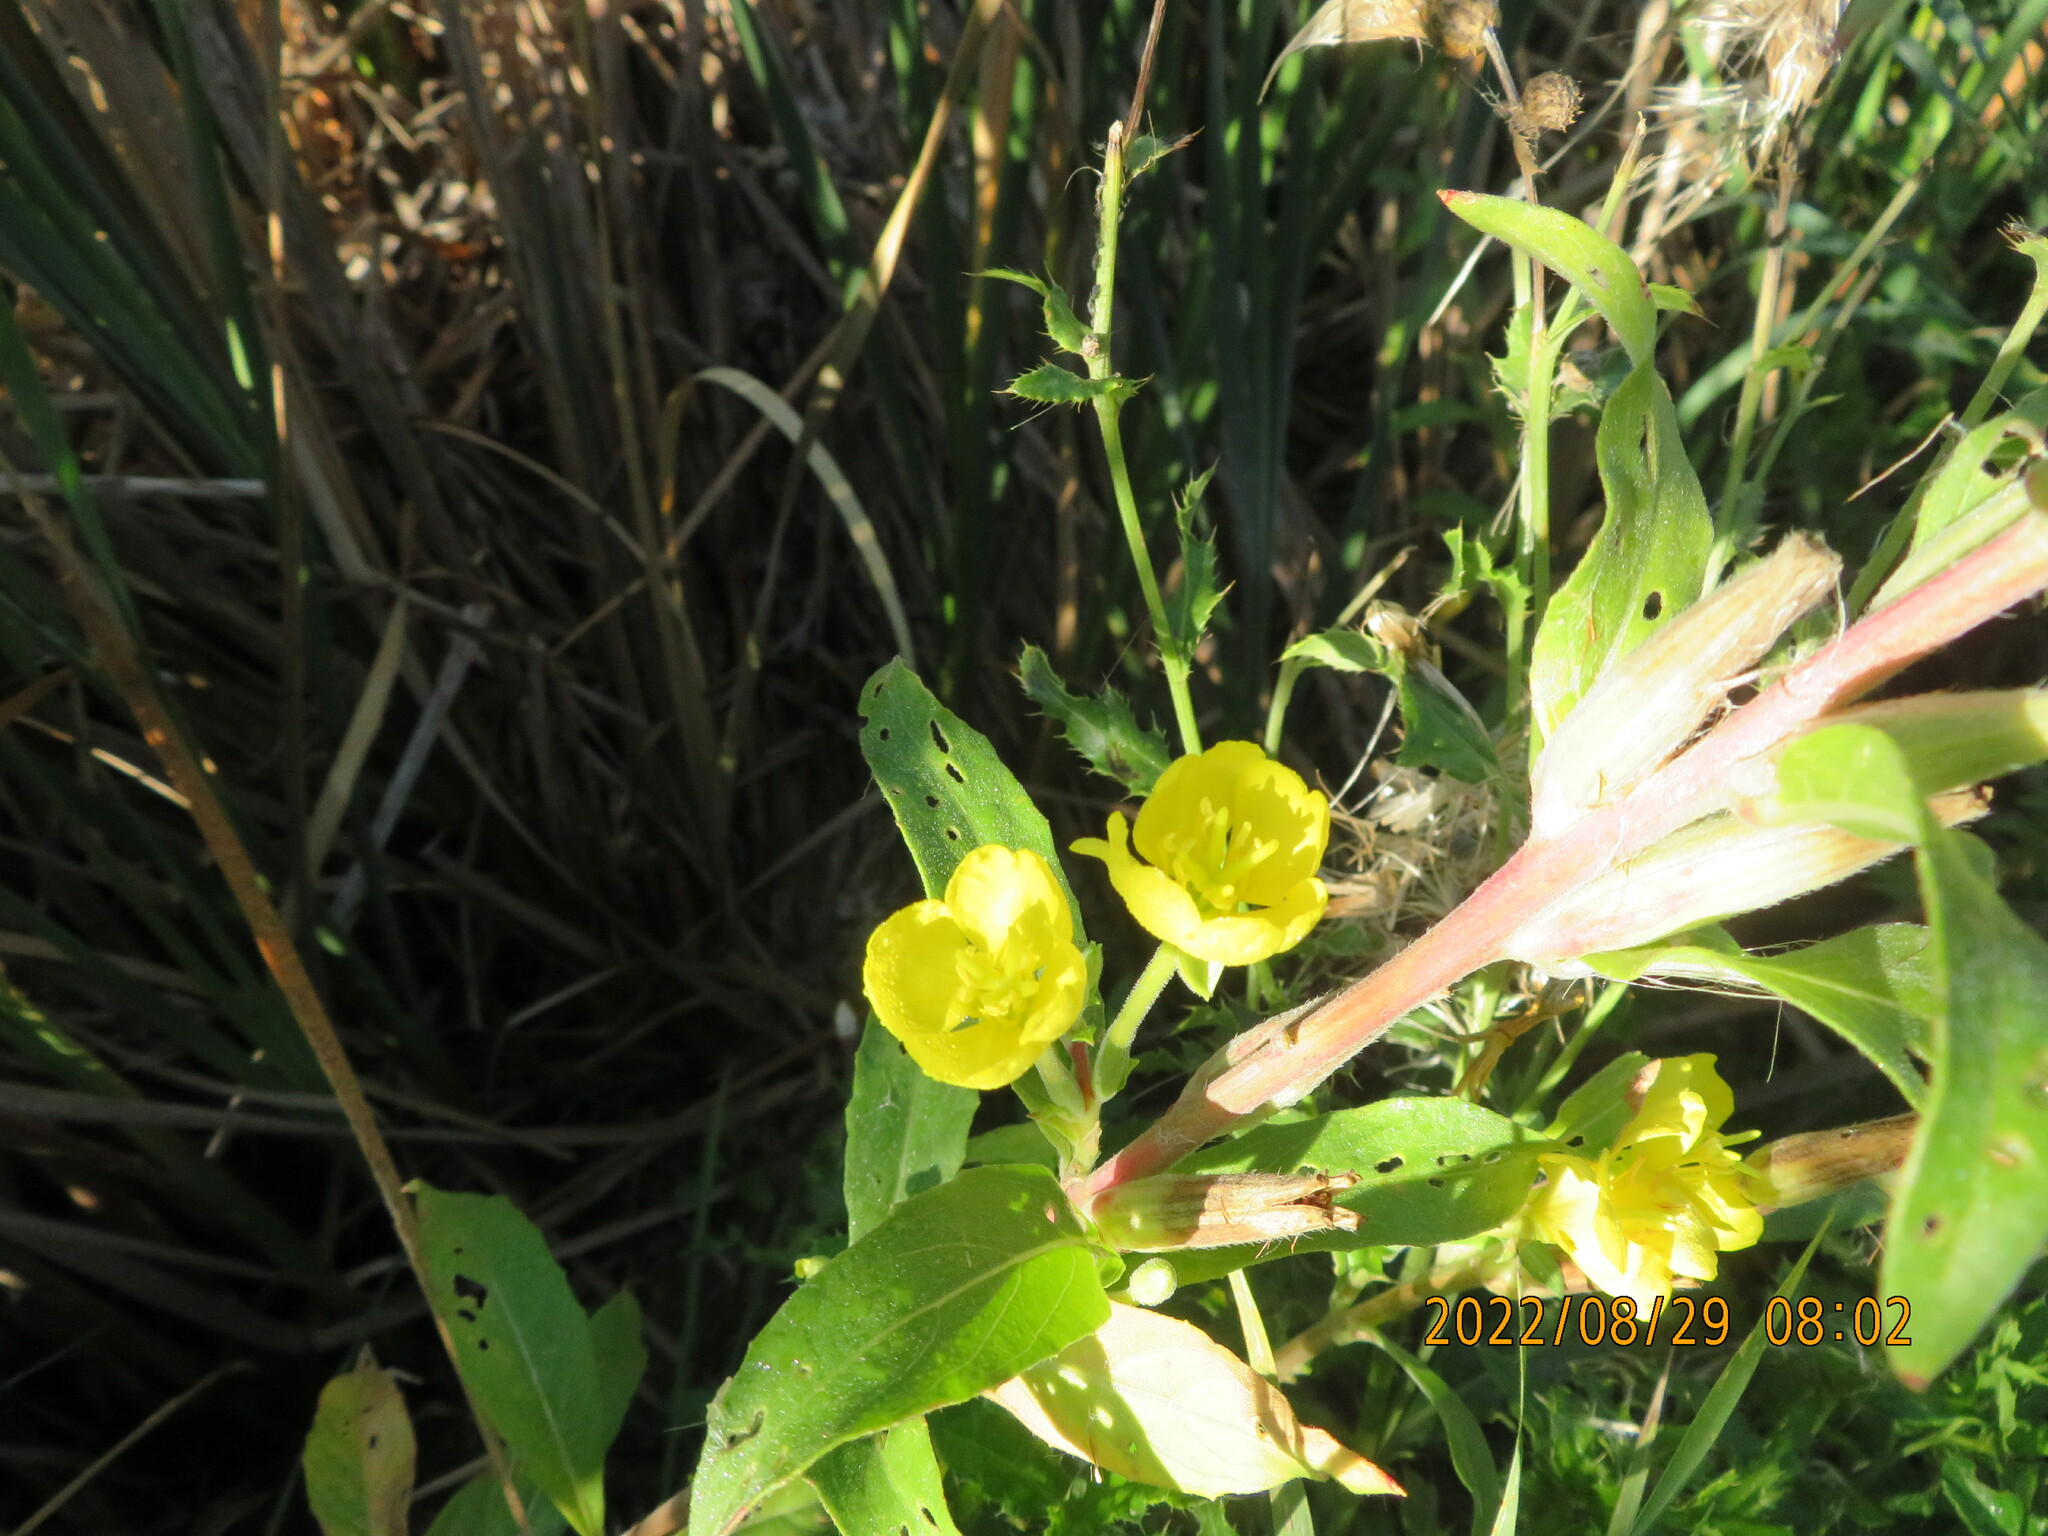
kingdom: Plantae
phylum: Tracheophyta
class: Magnoliopsida
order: Myrtales
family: Onagraceae
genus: Oenothera
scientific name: Oenothera biennis
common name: Common evening-primrose
